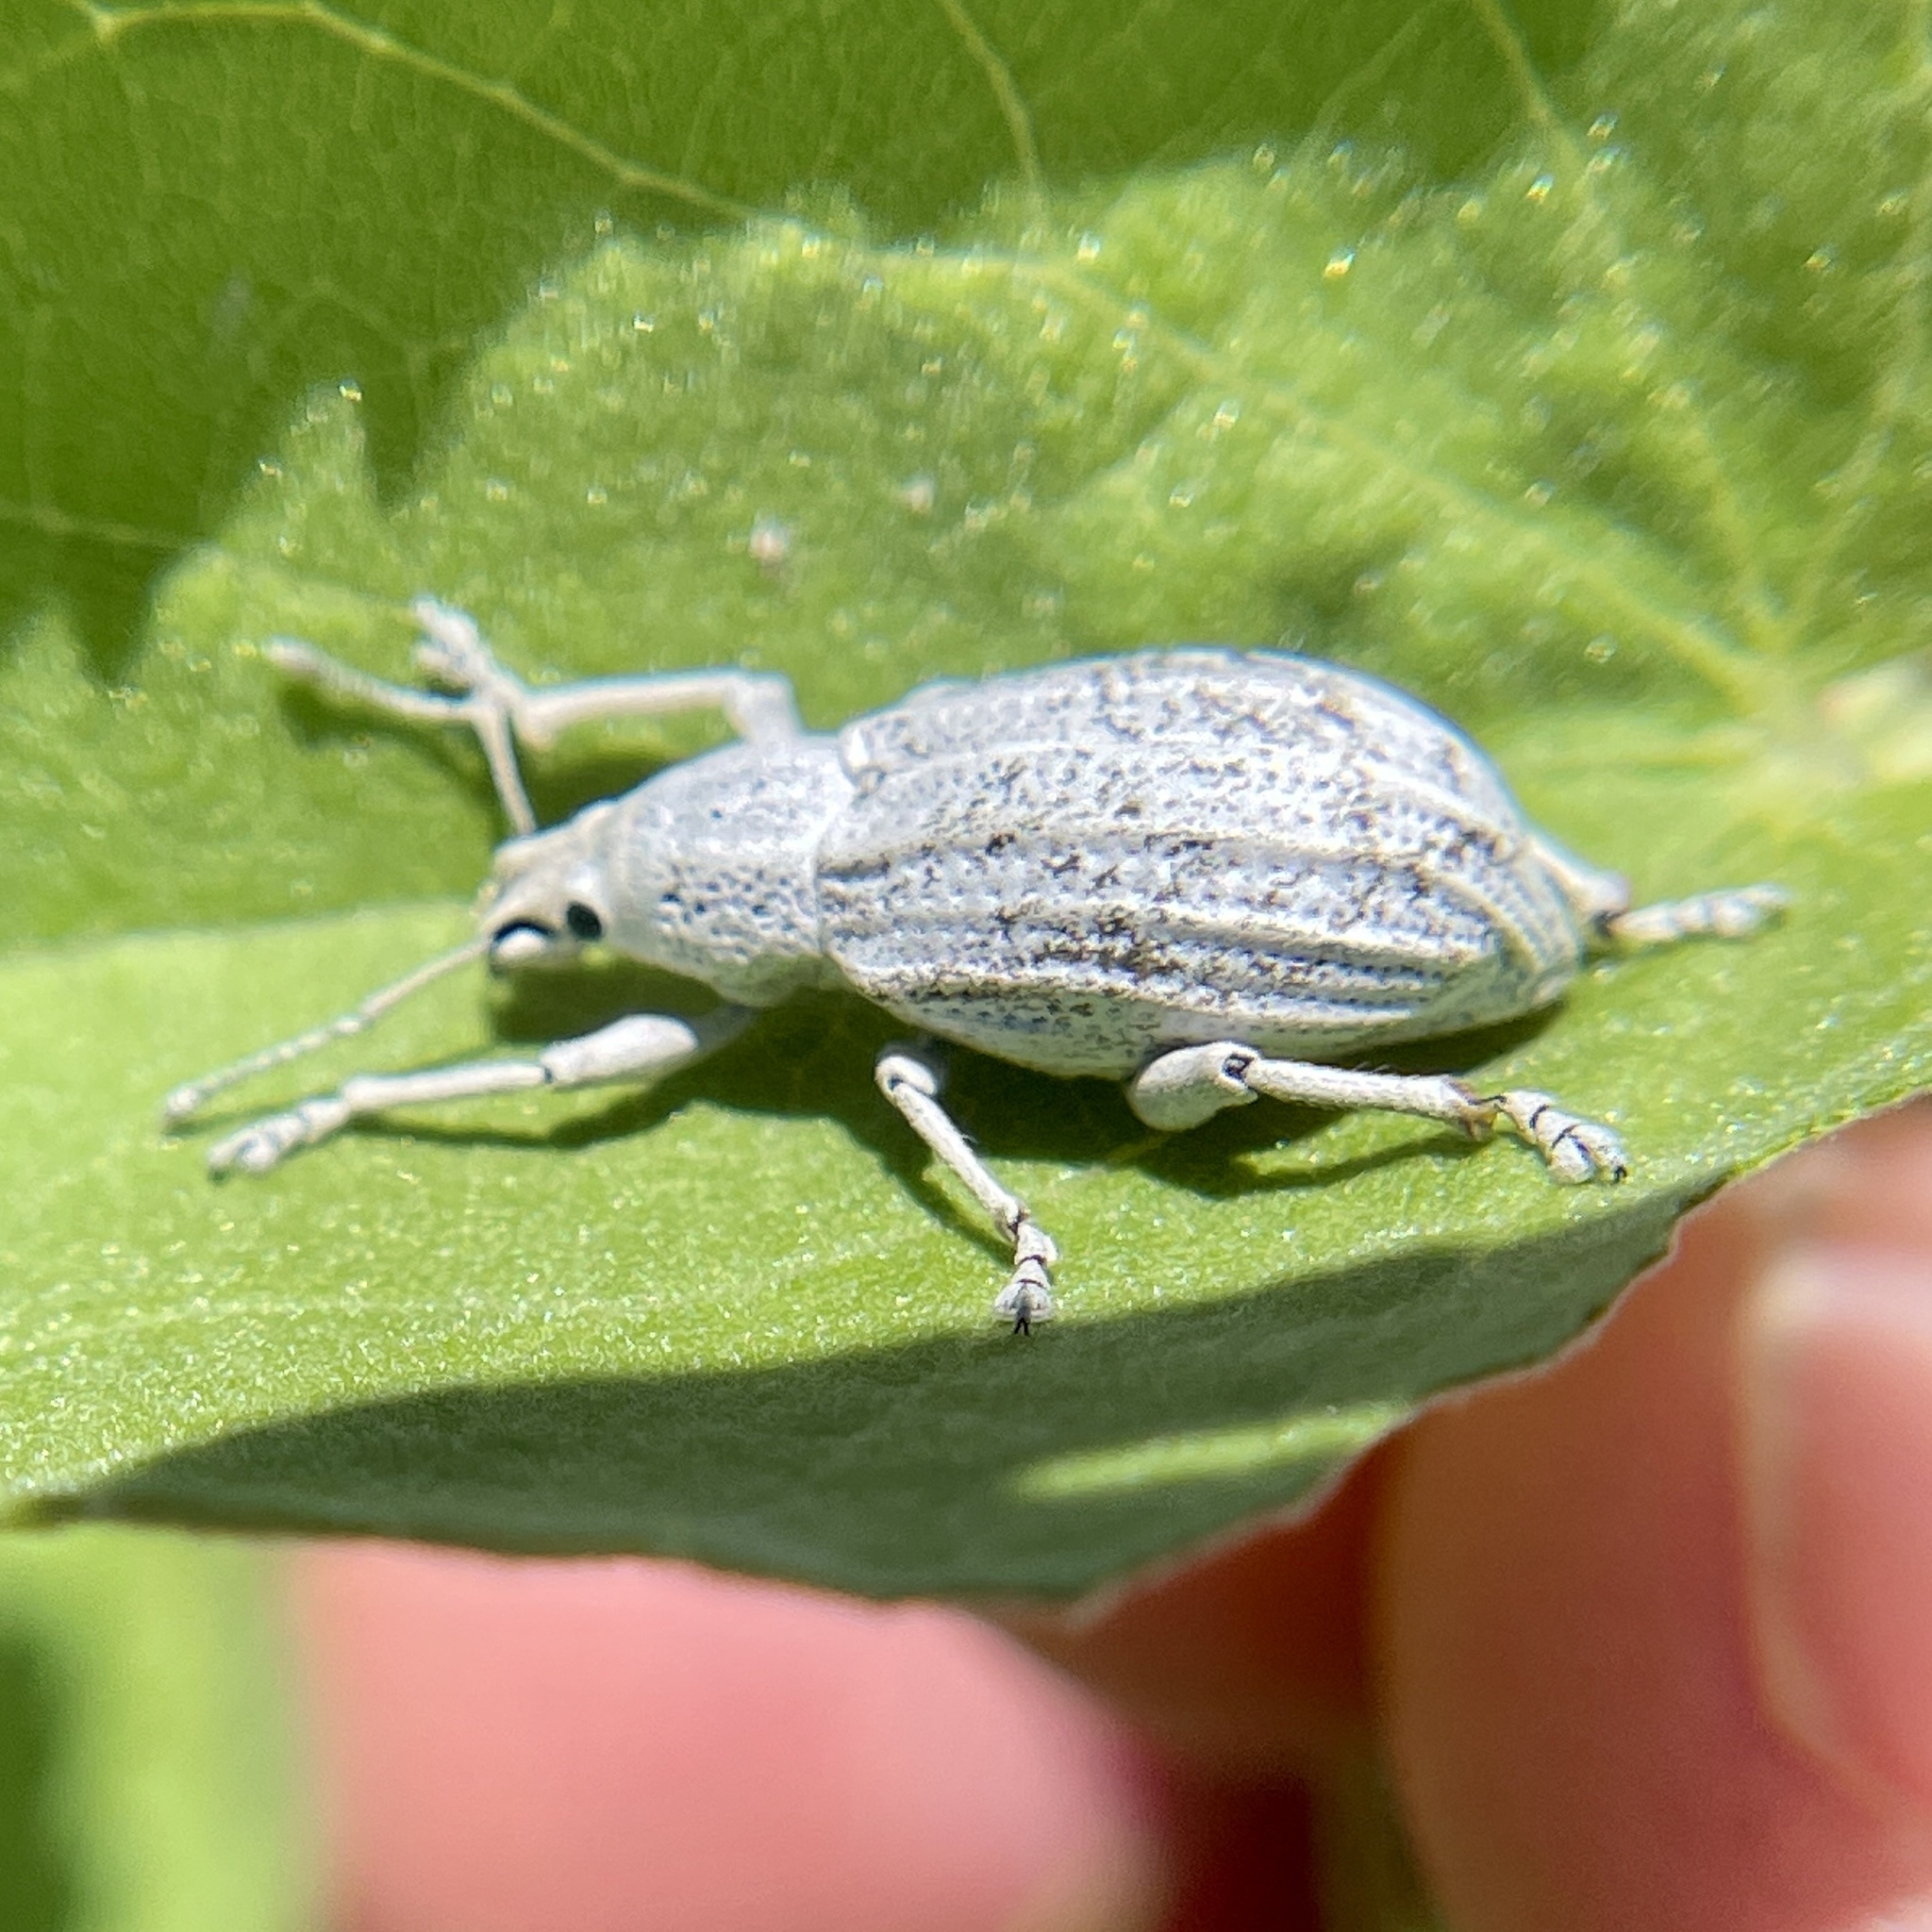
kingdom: Animalia
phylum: Arthropoda
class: Insecta
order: Coleoptera
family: Curculionidae
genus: Compsus
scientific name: Compsus auricephalus
